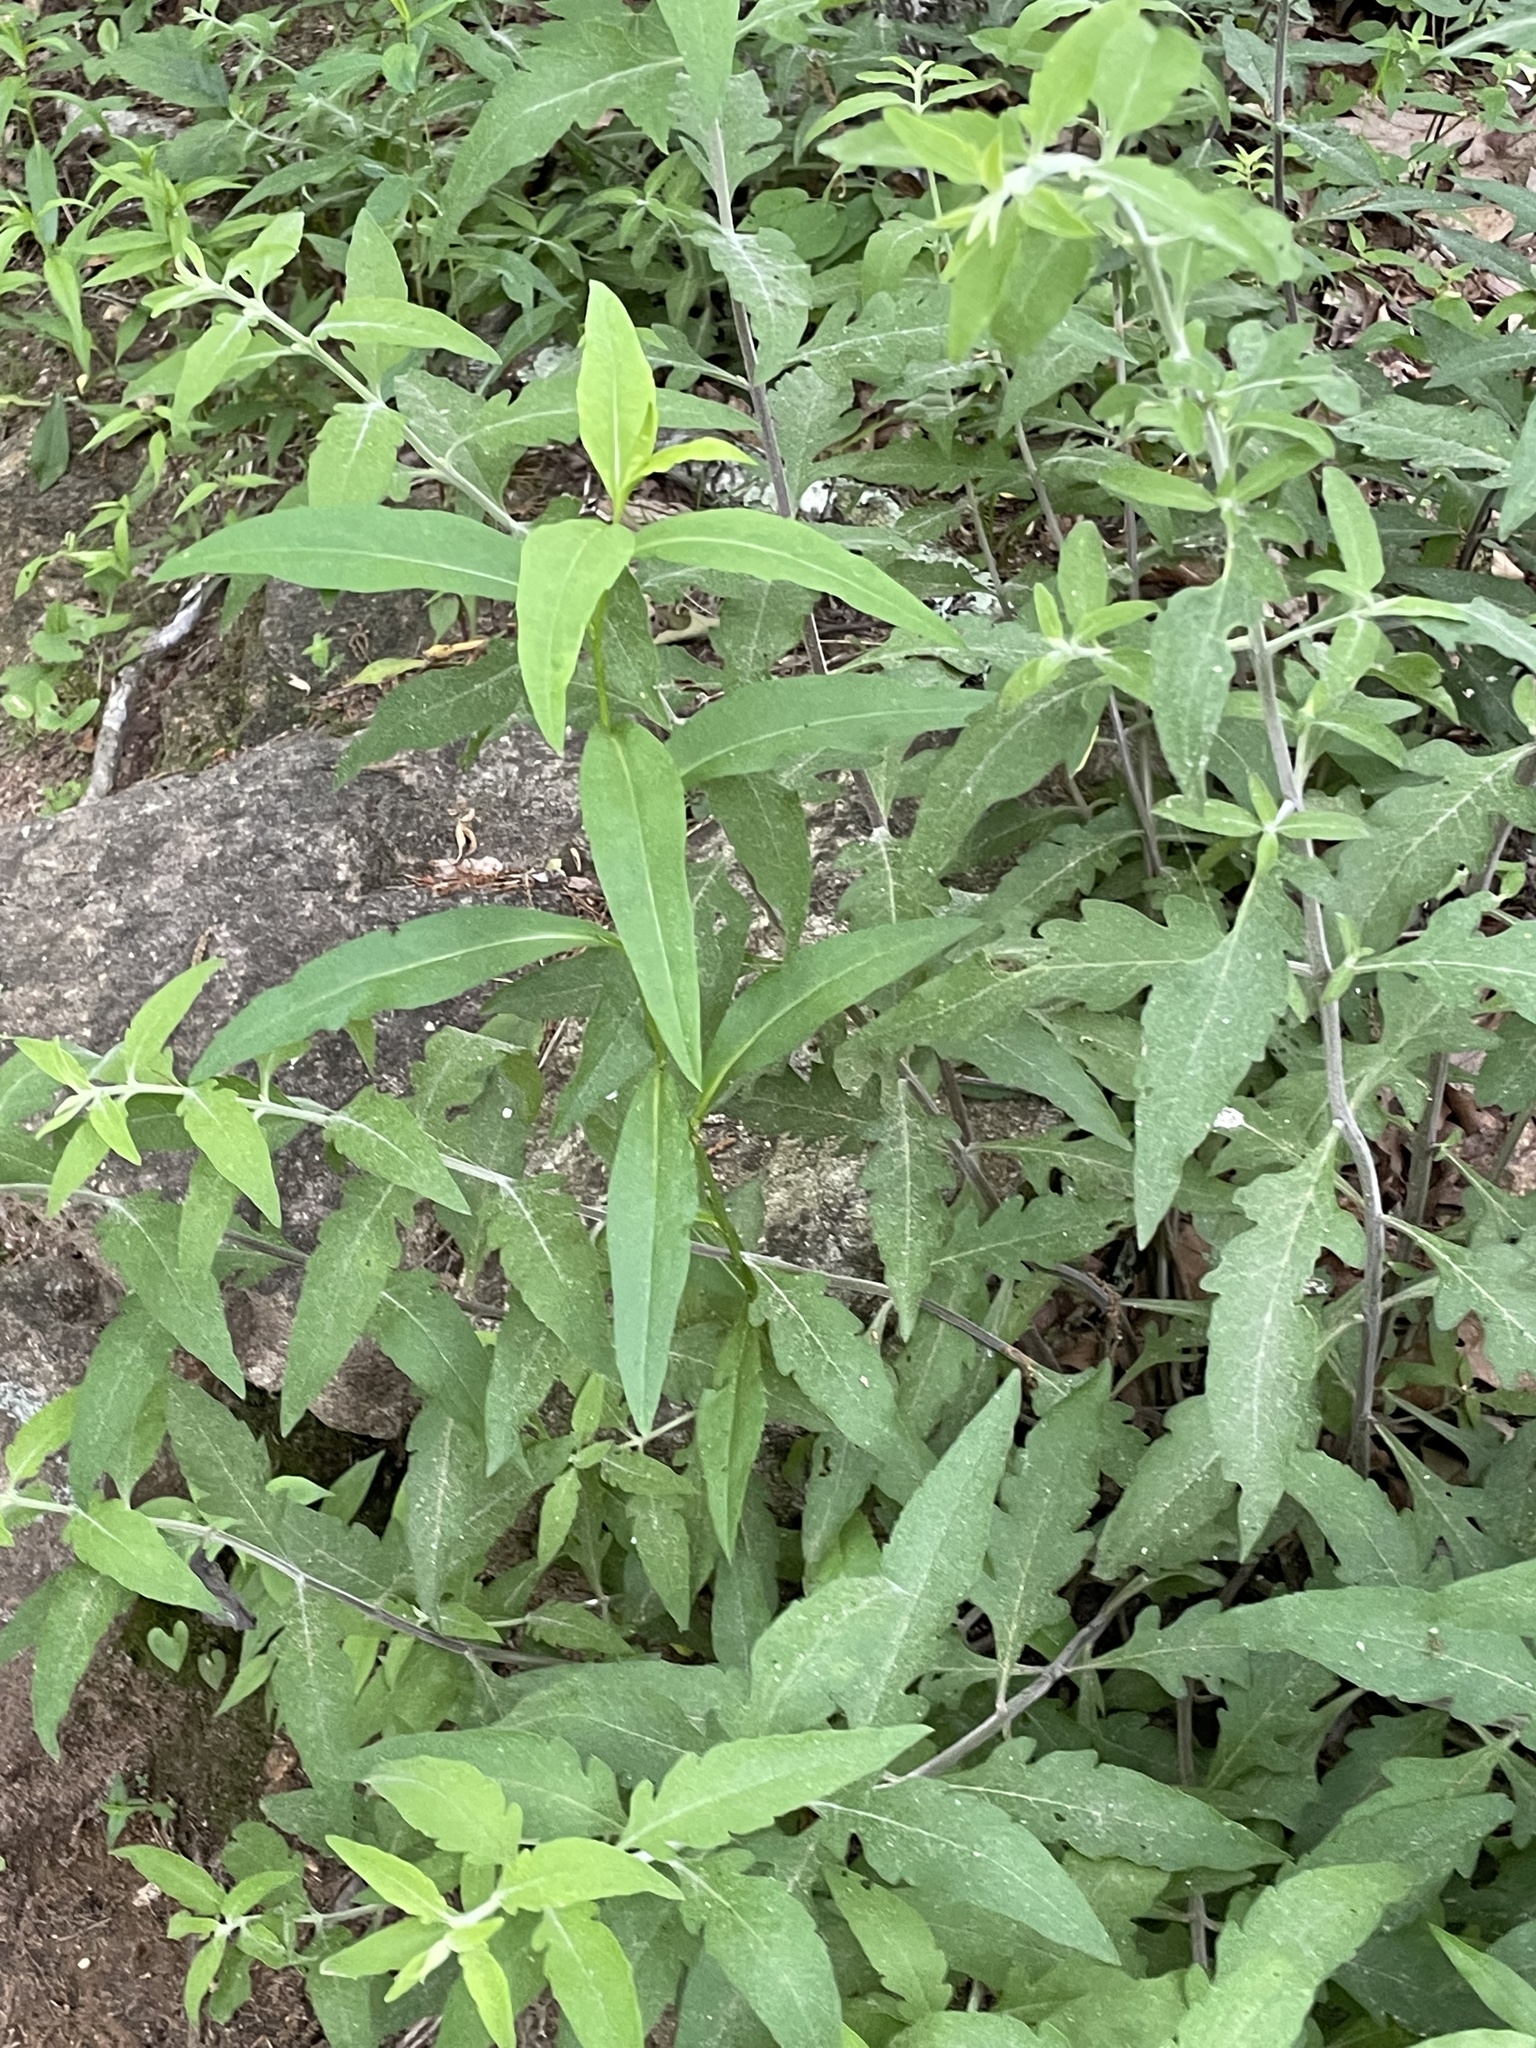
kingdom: Plantae
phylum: Tracheophyta
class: Magnoliopsida
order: Lamiales
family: Orobanchaceae
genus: Aureolaria
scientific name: Aureolaria virginica
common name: Downy false foxglove
